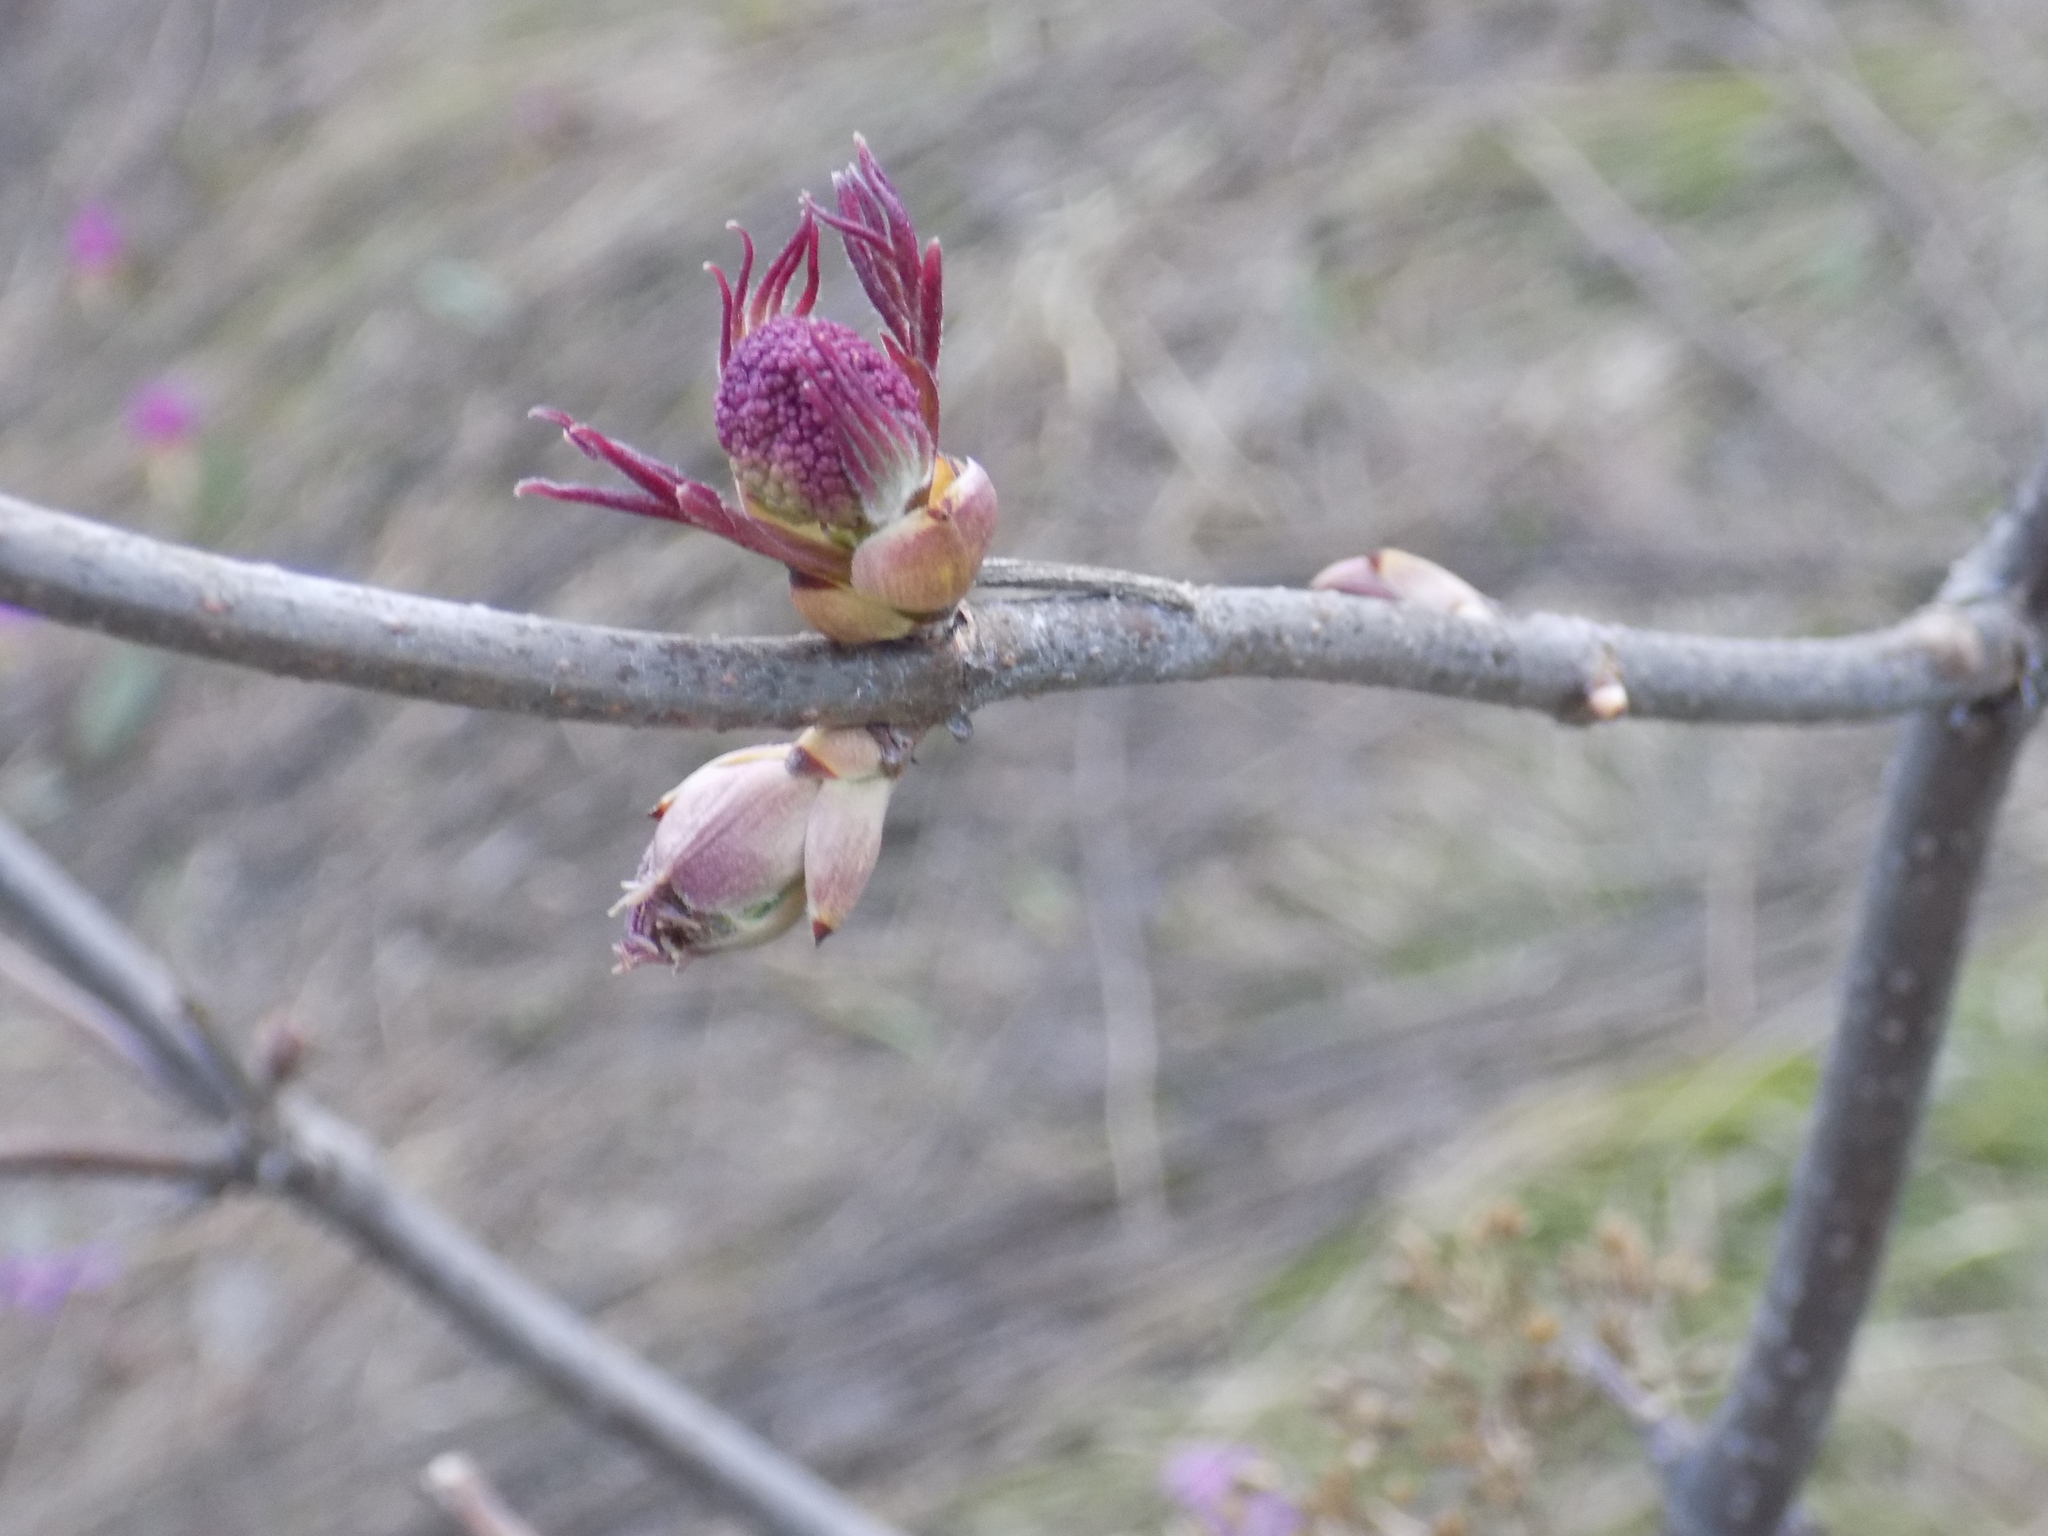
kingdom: Plantae
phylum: Tracheophyta
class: Magnoliopsida
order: Dipsacales
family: Viburnaceae
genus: Sambucus
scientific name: Sambucus sibirica
